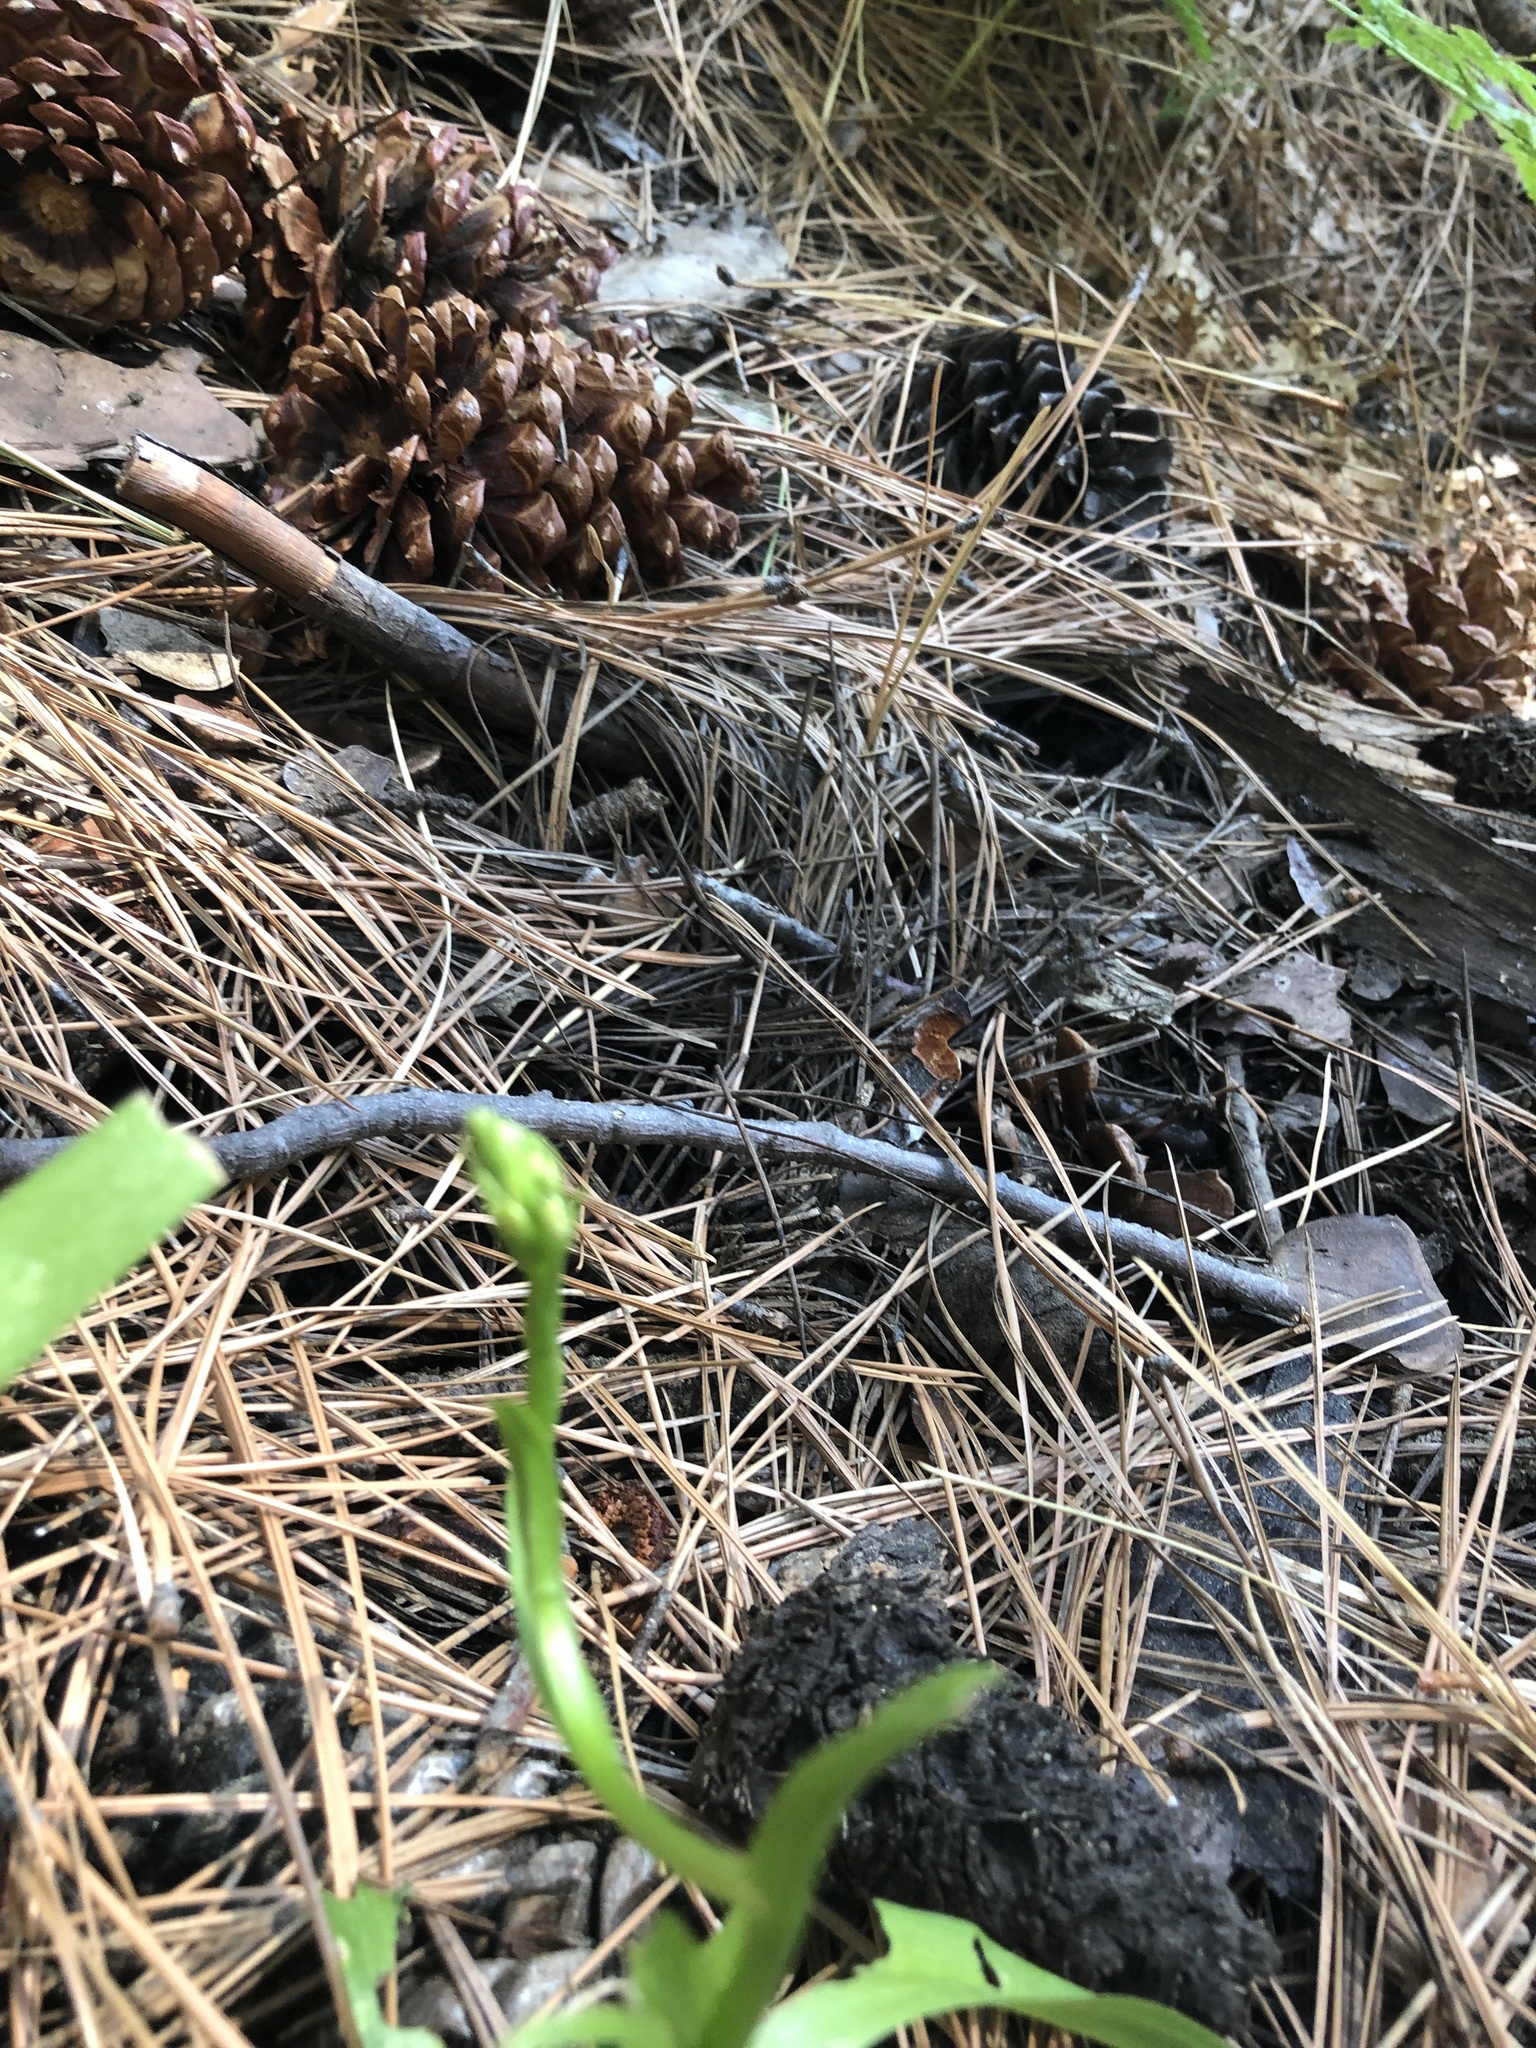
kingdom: Plantae
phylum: Tracheophyta
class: Liliopsida
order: Asparagales
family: Orchidaceae
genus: Platanthera
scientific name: Platanthera dilatata
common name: Bog candles
